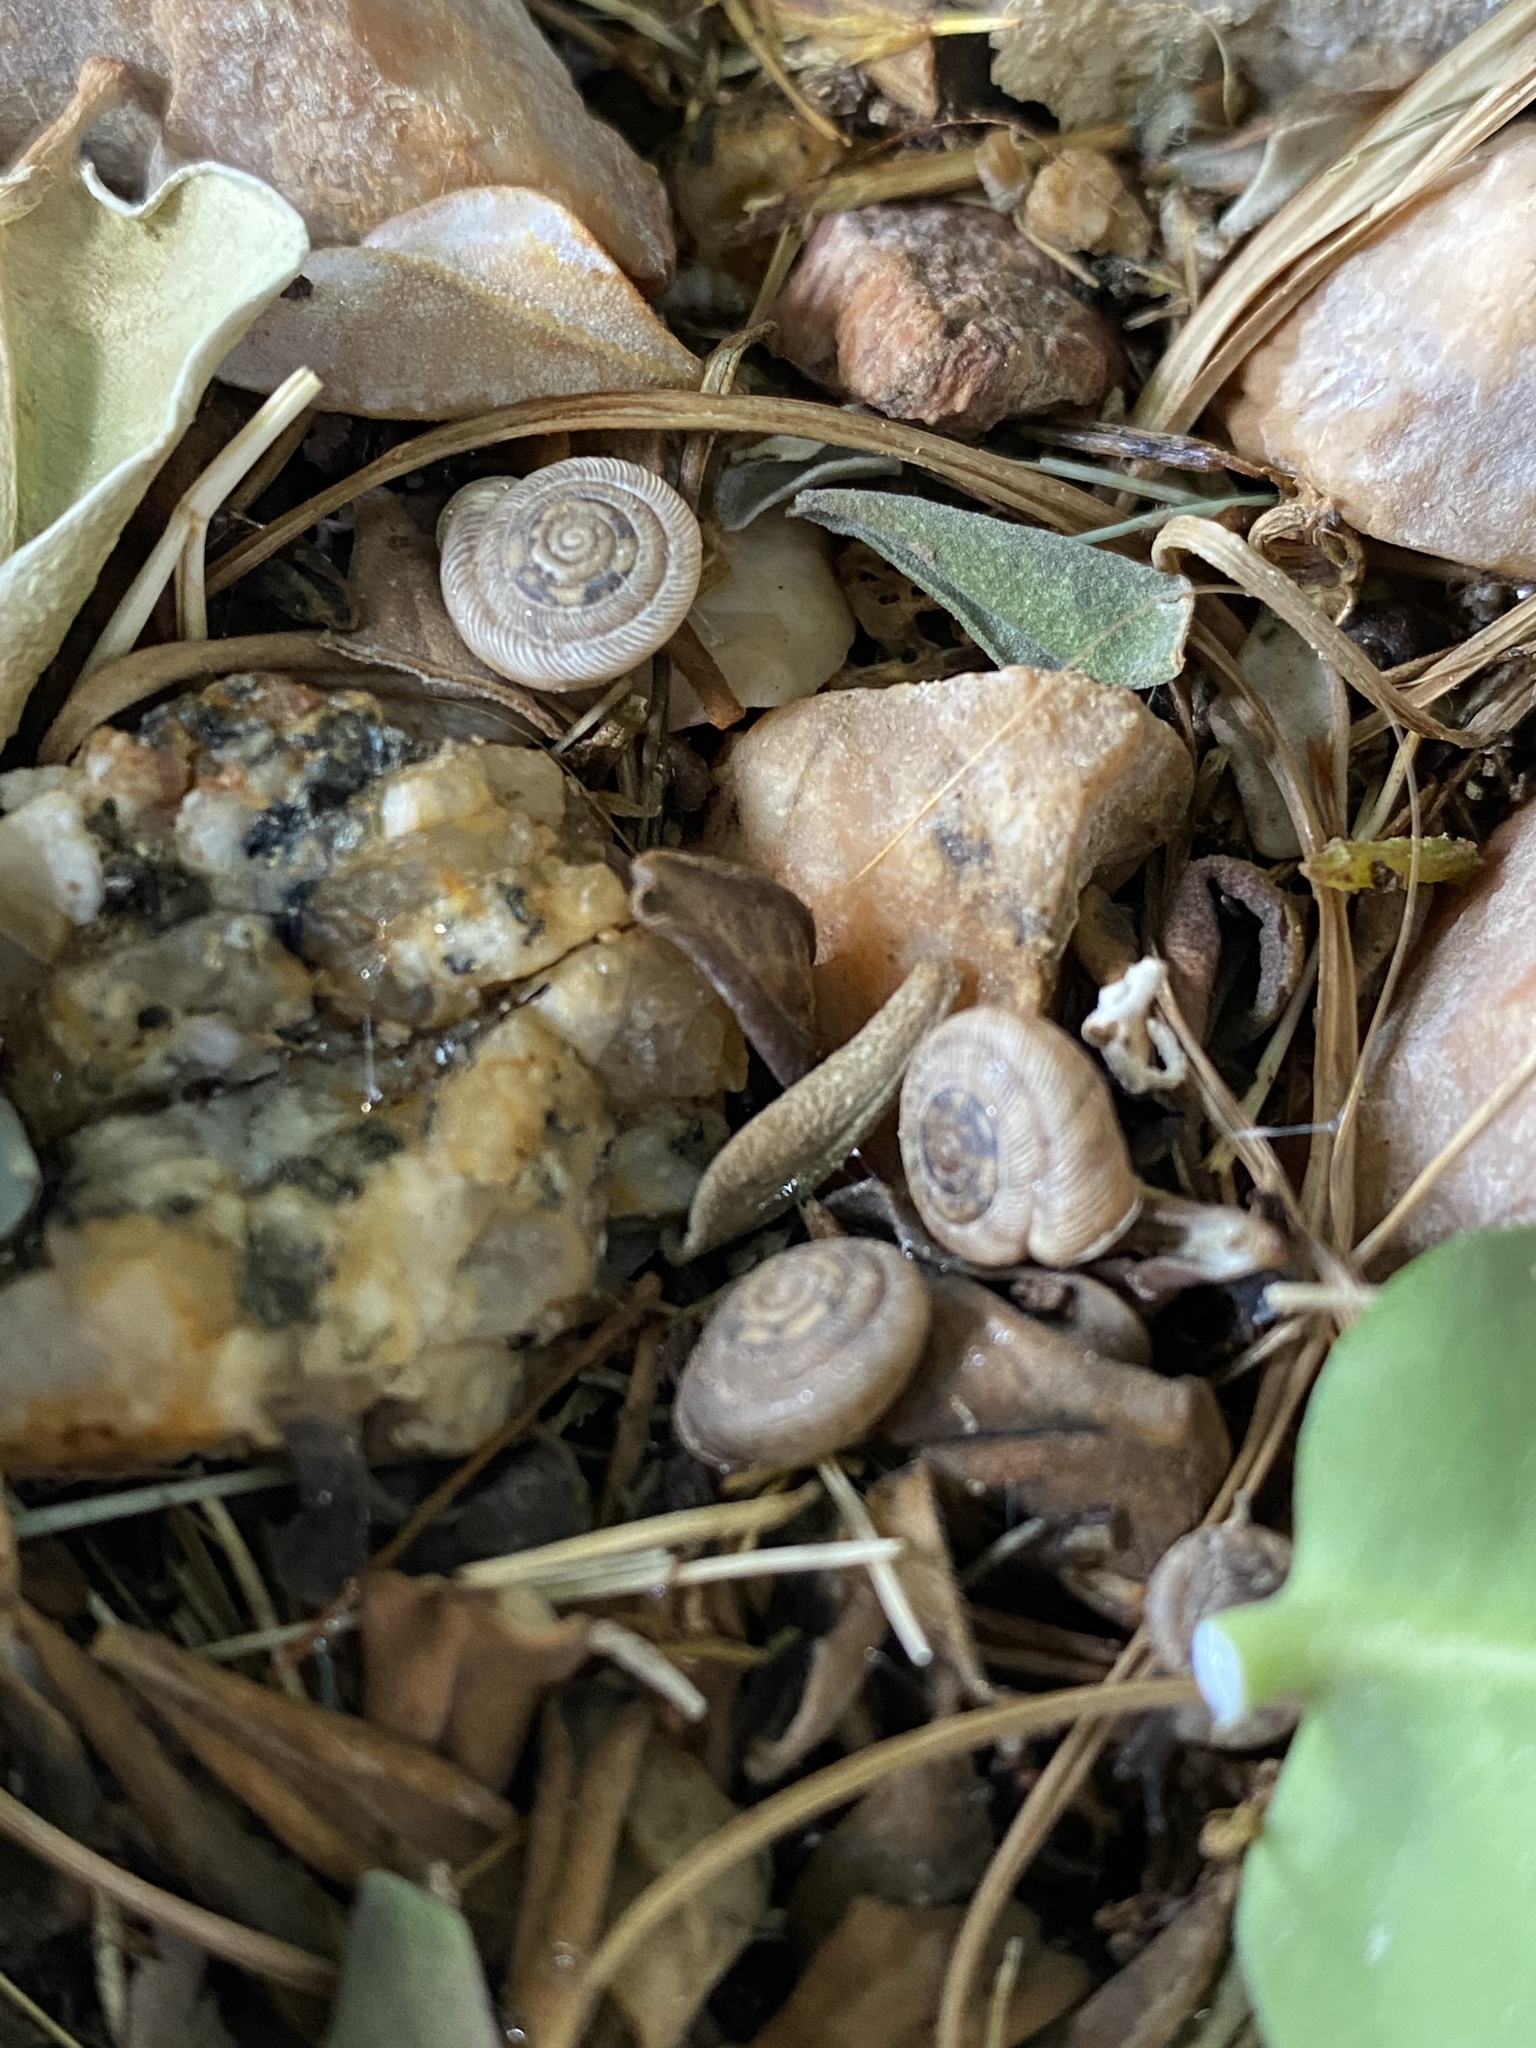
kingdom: Animalia
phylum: Mollusca
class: Gastropoda
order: Stylommatophora
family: Polygyridae
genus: Polygyra
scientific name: Polygyra cereolus
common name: Southern flatcone snail
